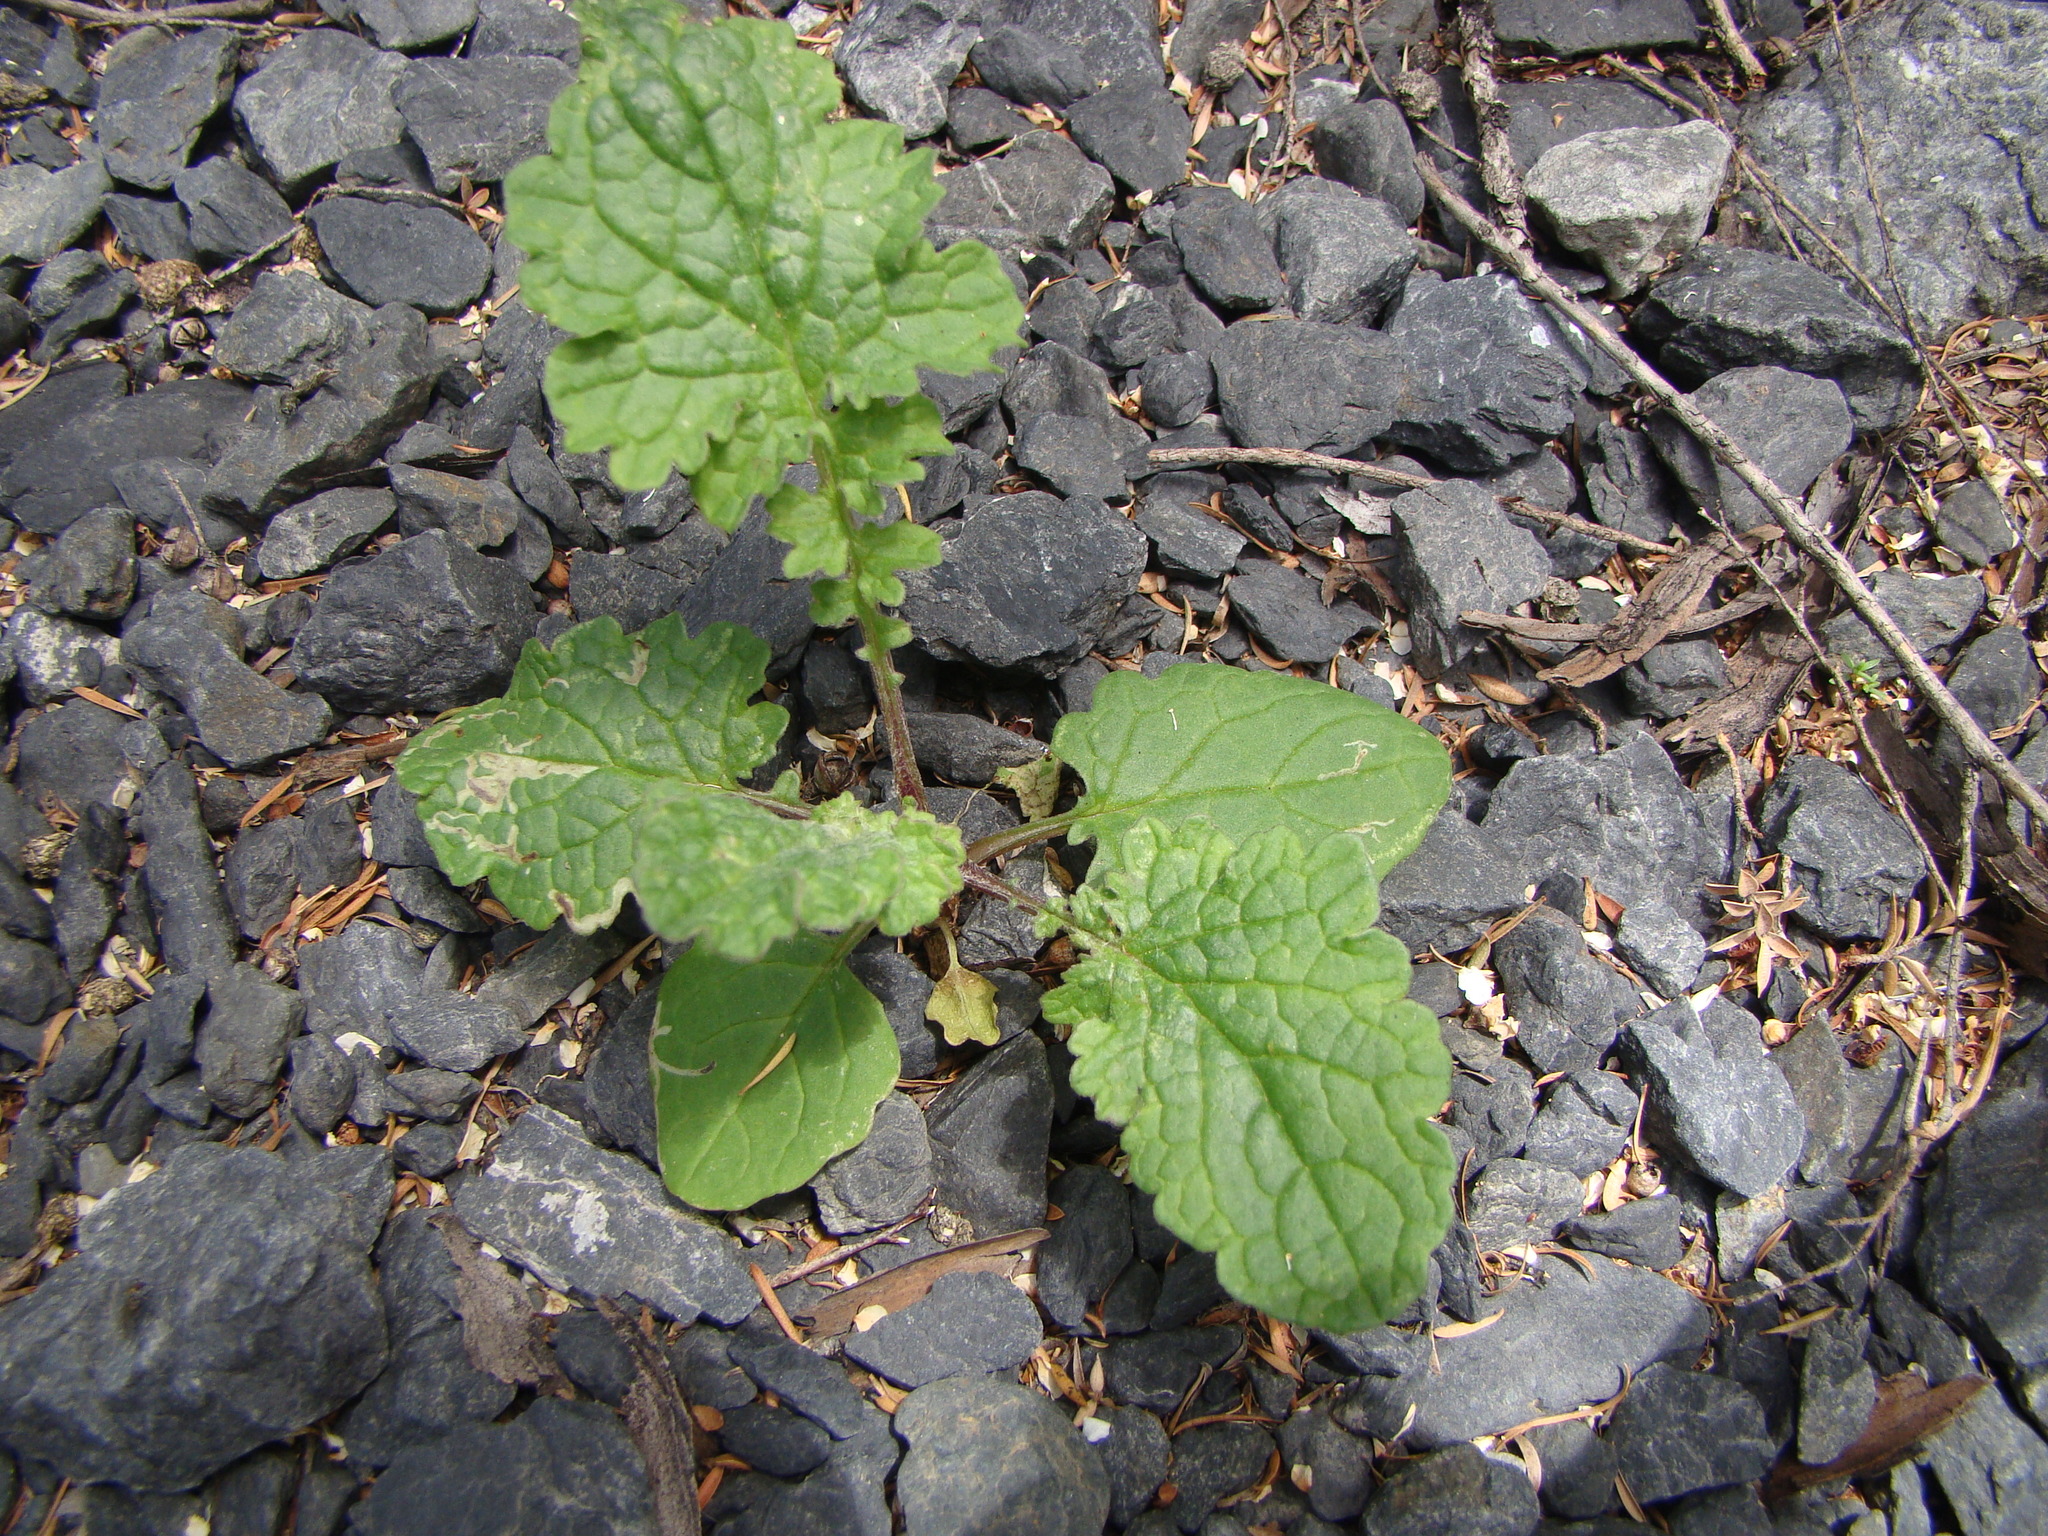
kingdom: Plantae
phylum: Tracheophyta
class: Magnoliopsida
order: Asterales
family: Asteraceae
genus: Jacobaea
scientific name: Jacobaea vulgaris
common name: Stinking willie
